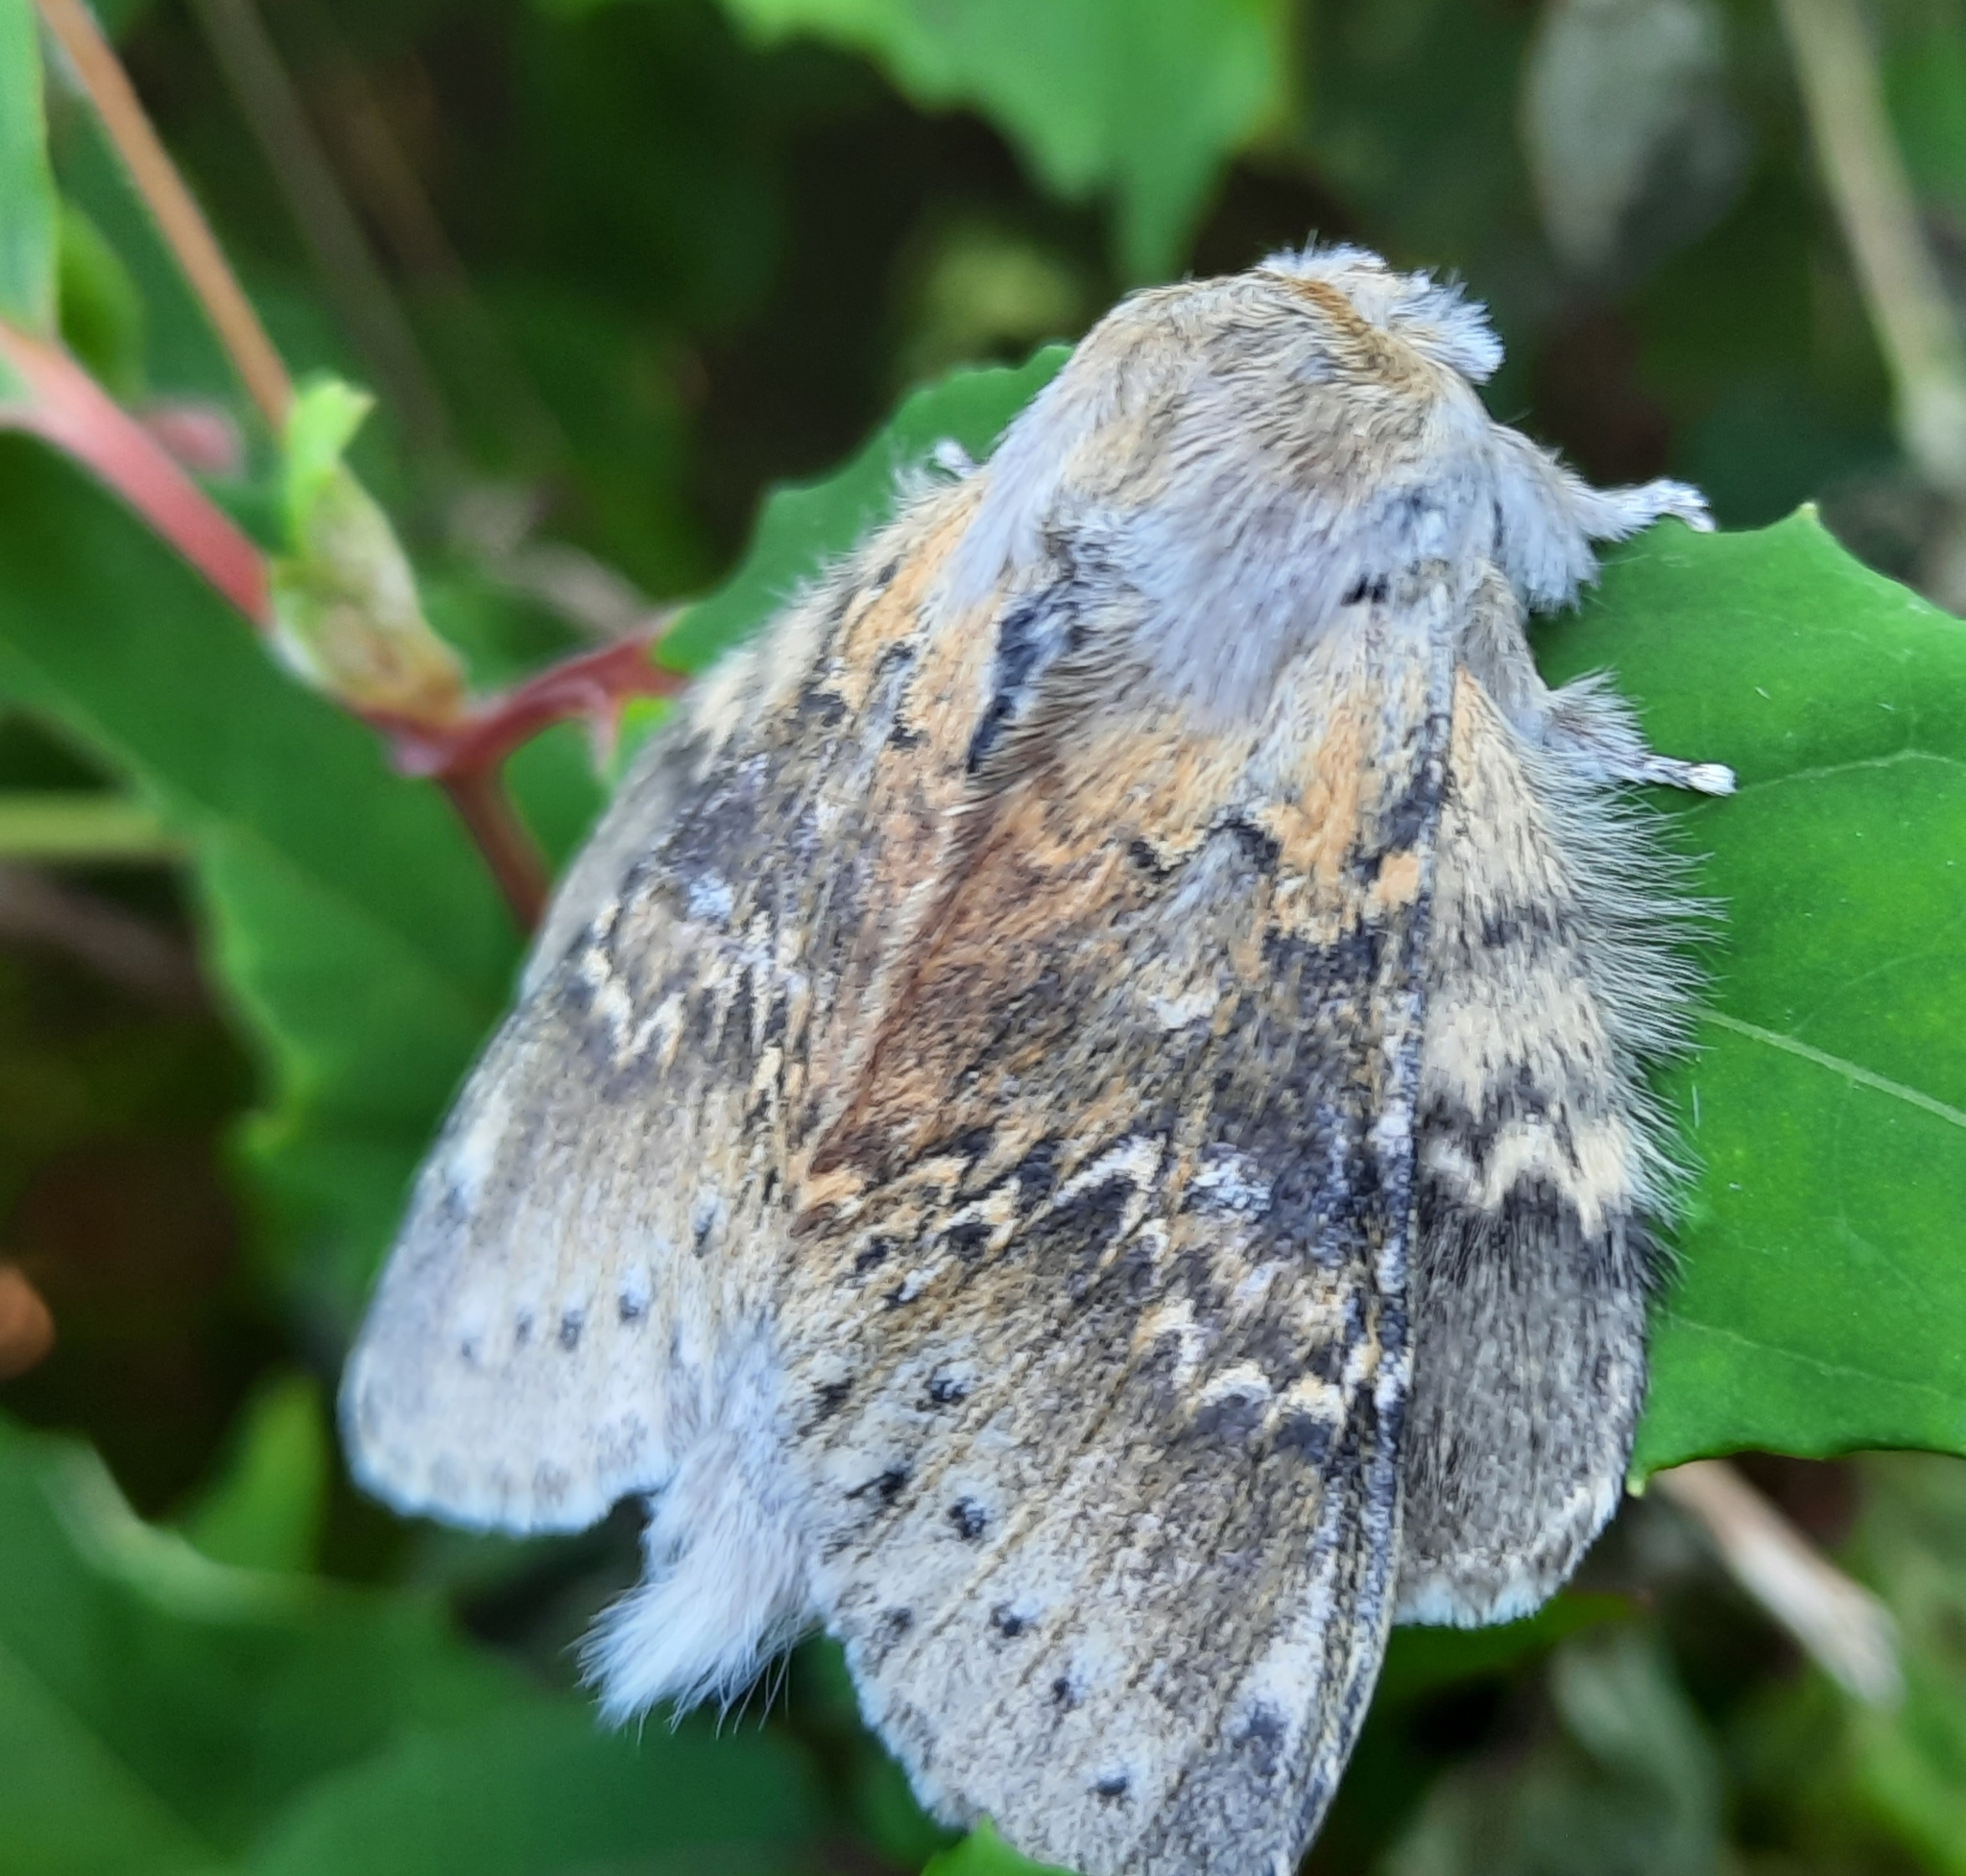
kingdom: Animalia
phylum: Arthropoda
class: Insecta
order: Lepidoptera
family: Notodontidae
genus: Stauropus
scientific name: Stauropus fagi
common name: Lobster moth
